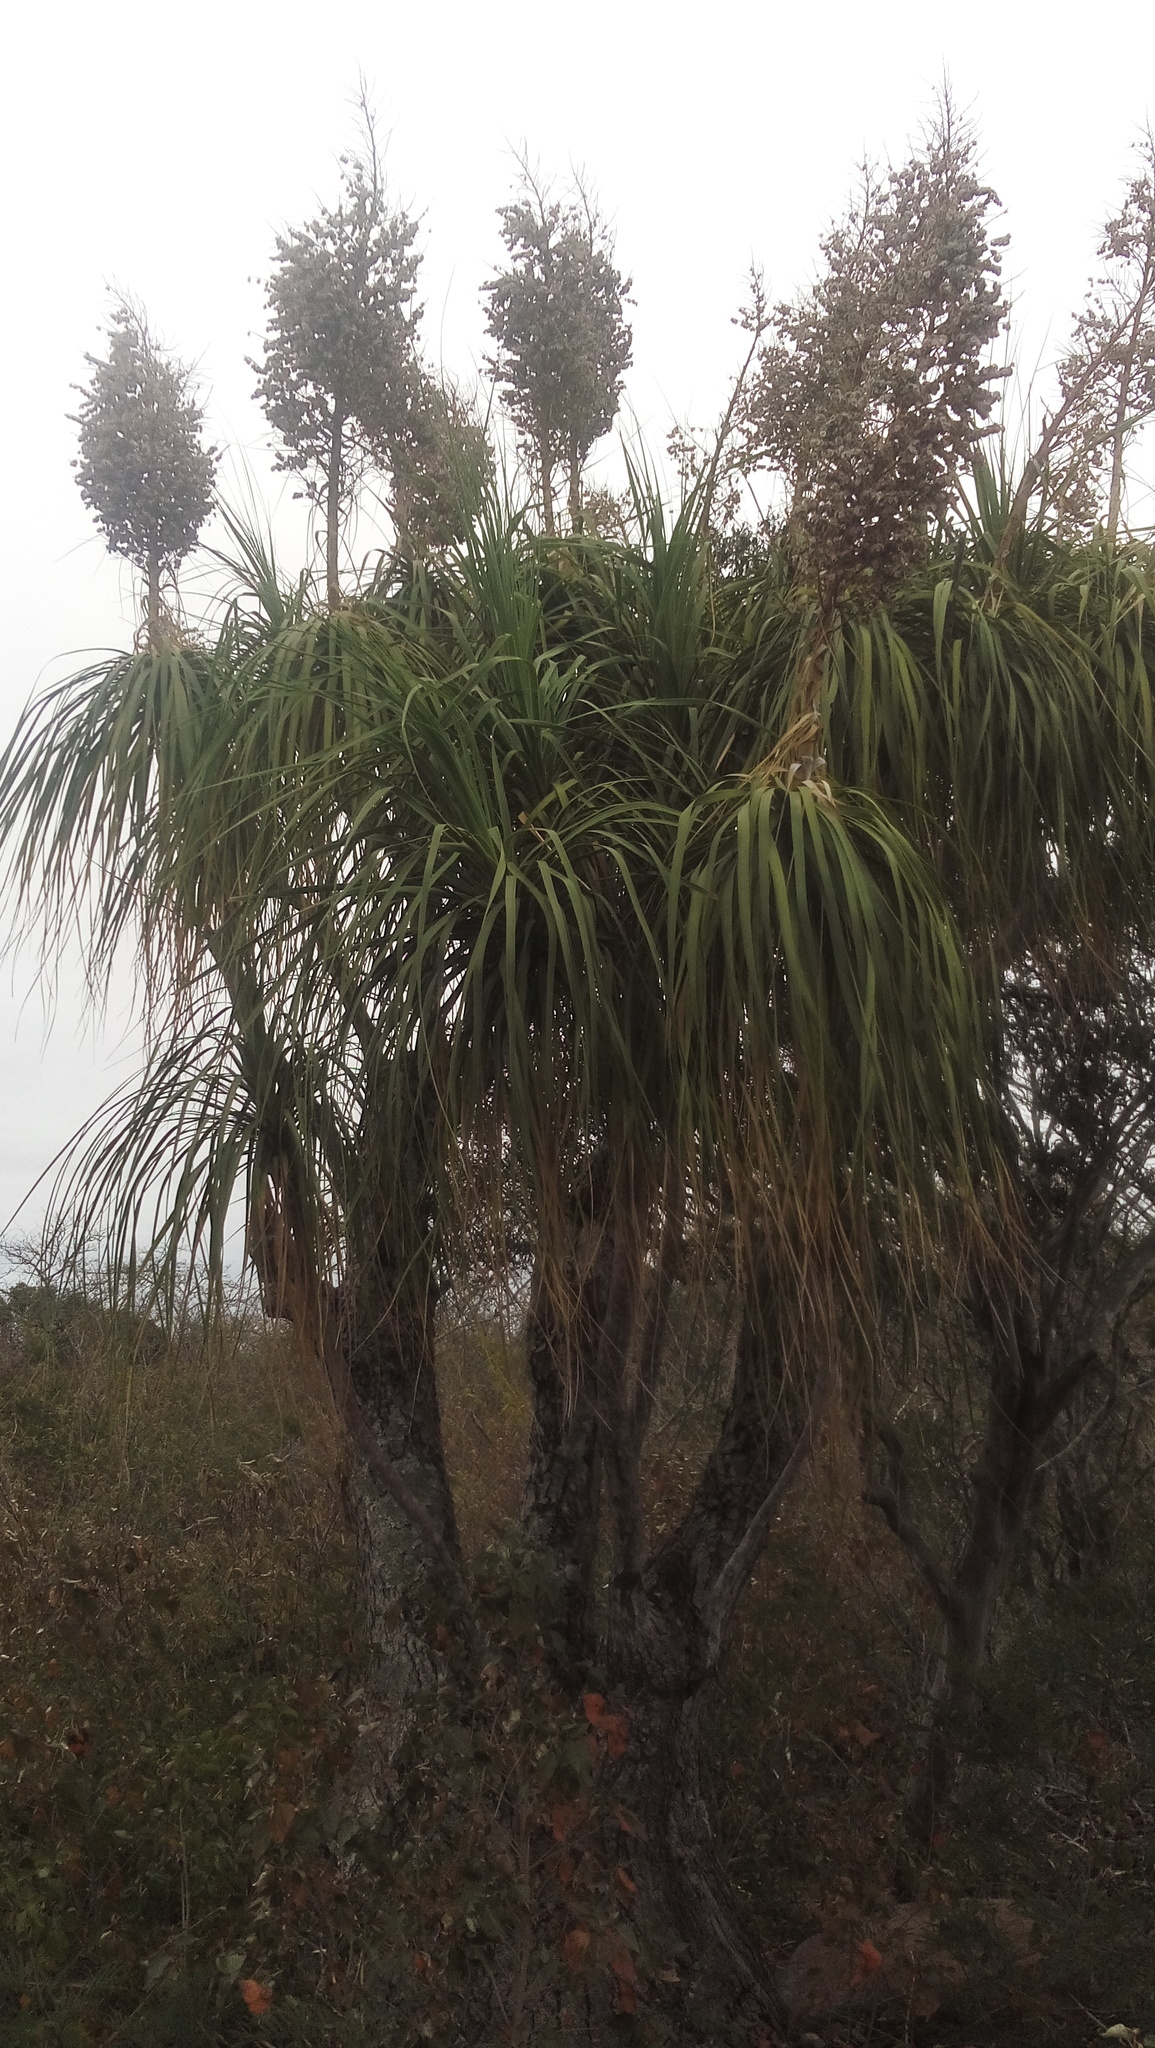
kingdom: Plantae
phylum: Tracheophyta
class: Liliopsida
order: Asparagales
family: Asparagaceae
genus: Beaucarnea
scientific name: Beaucarnea recurvata
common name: Stripy  ponytail
